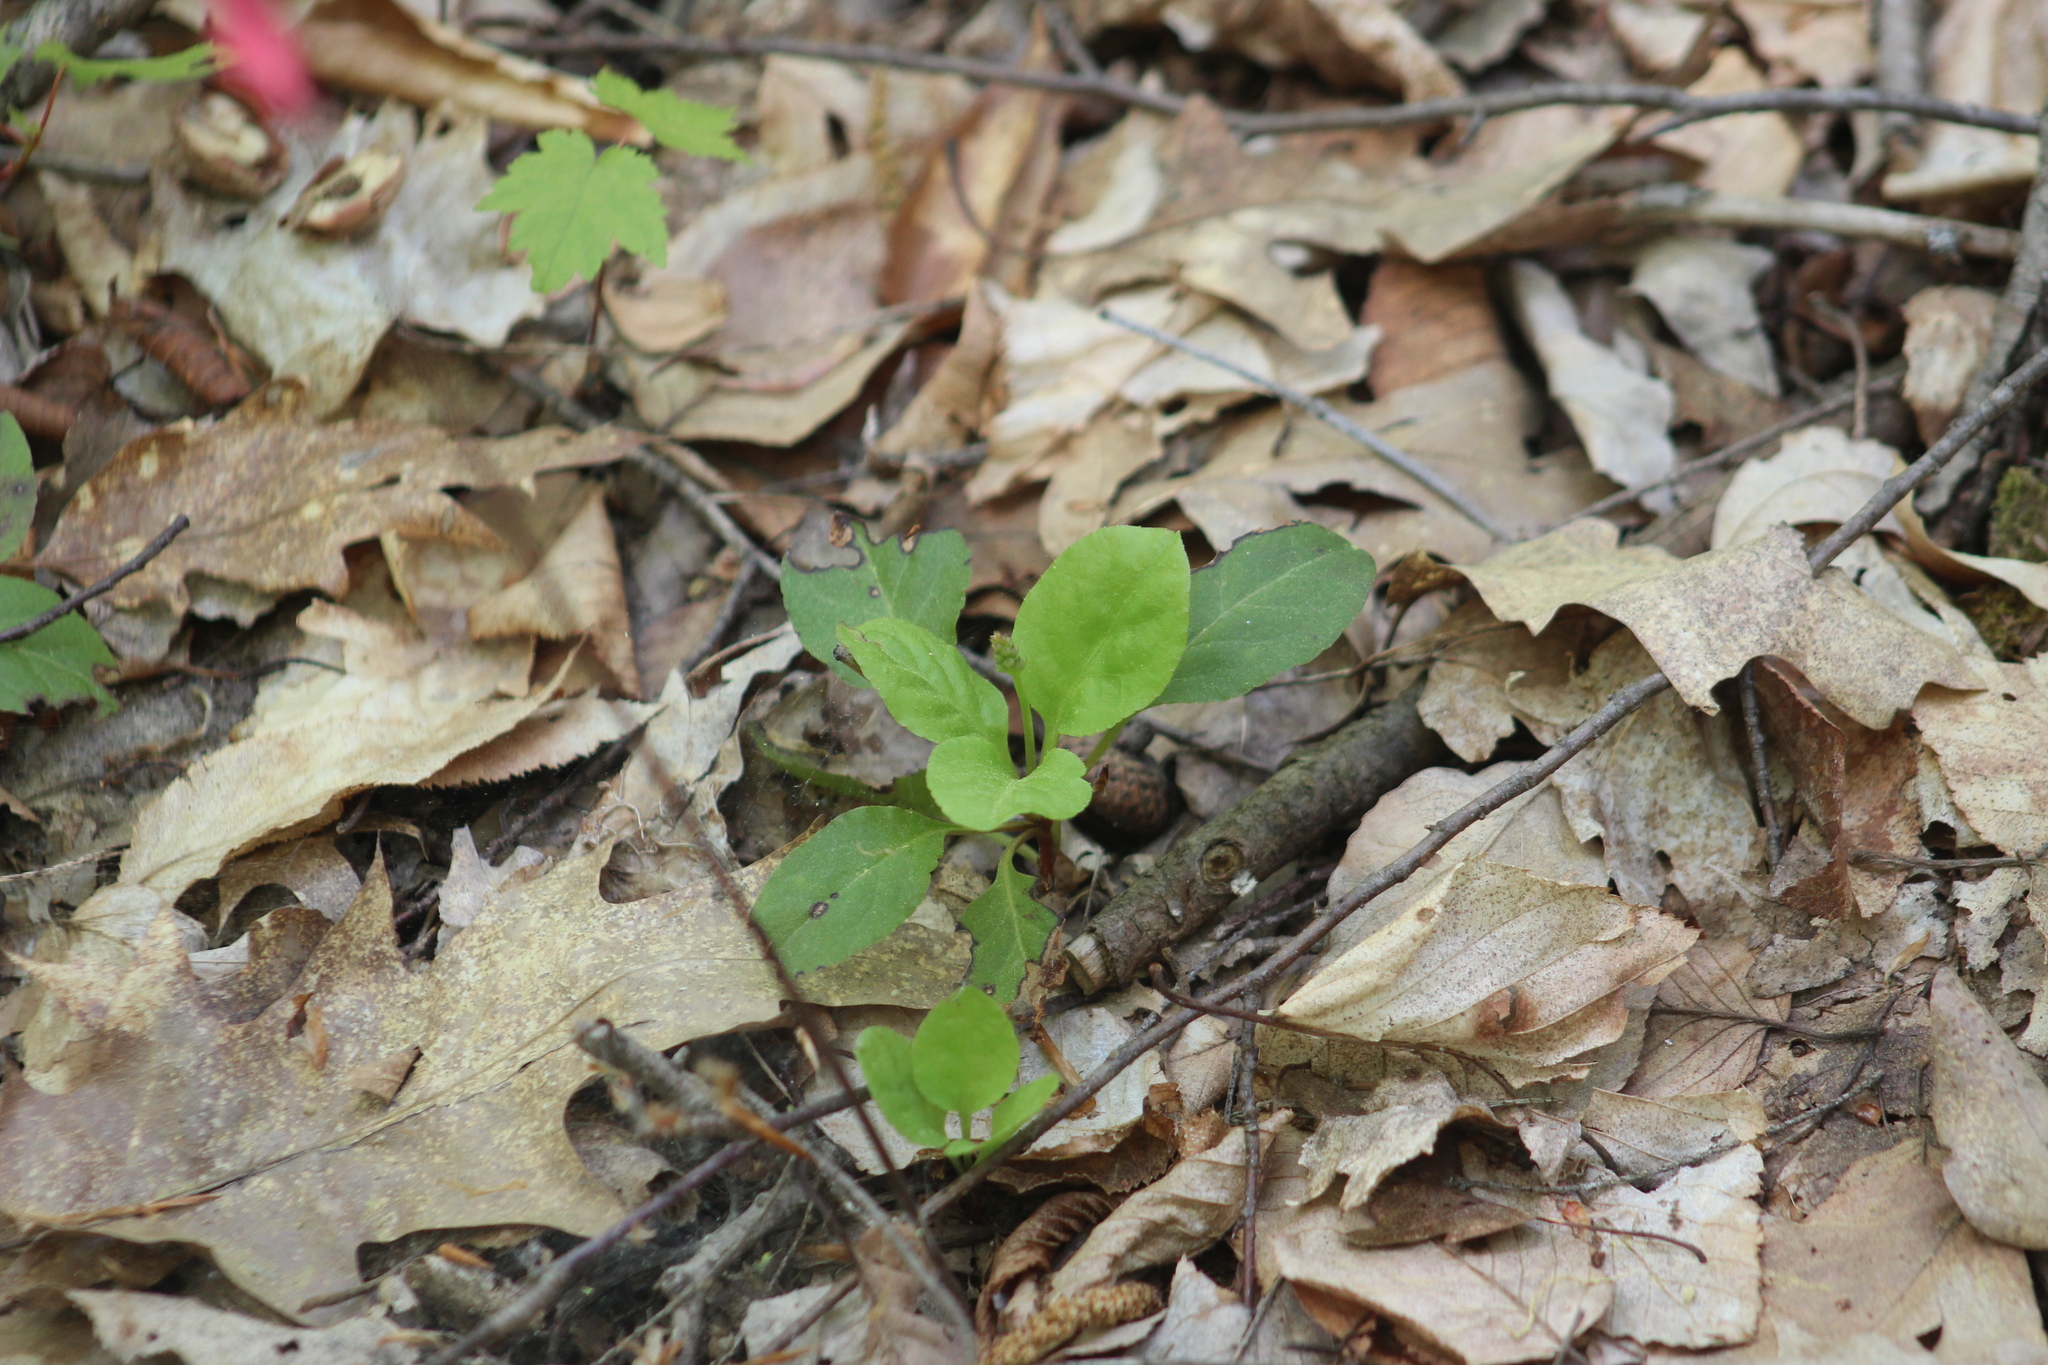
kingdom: Plantae
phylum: Tracheophyta
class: Magnoliopsida
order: Ericales
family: Ericaceae
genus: Pyrola
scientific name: Pyrola elliptica
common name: Shinleaf
